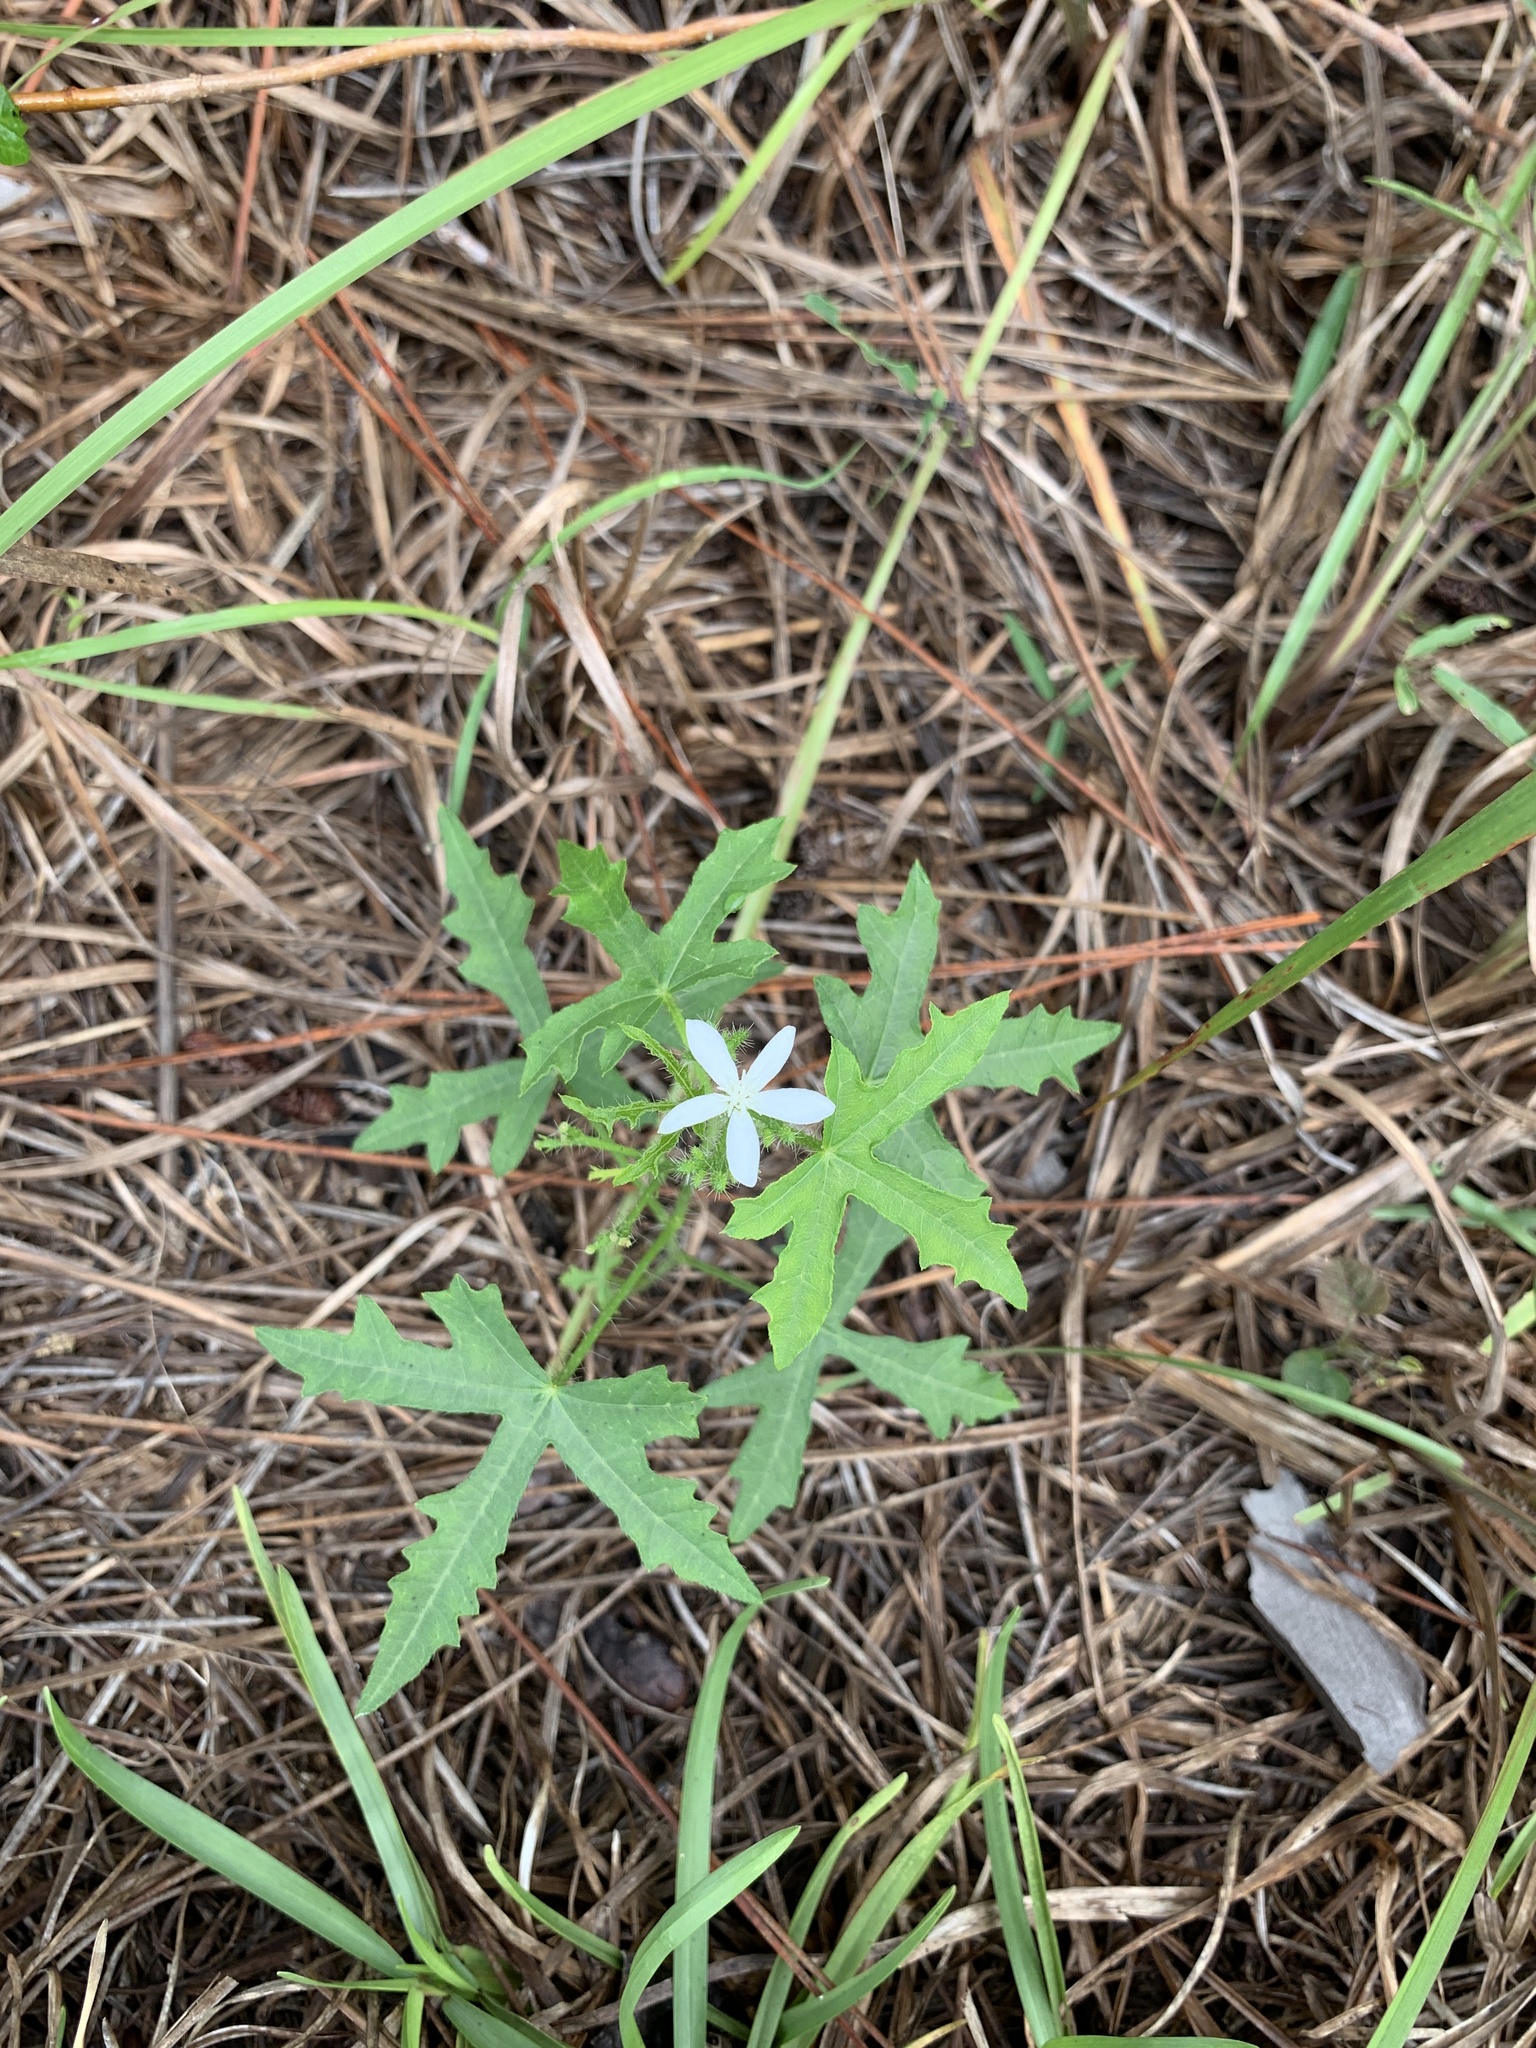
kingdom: Plantae
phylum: Tracheophyta
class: Magnoliopsida
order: Malpighiales
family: Euphorbiaceae
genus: Cnidoscolus
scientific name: Cnidoscolus stimulosus
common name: Bull-nettle
